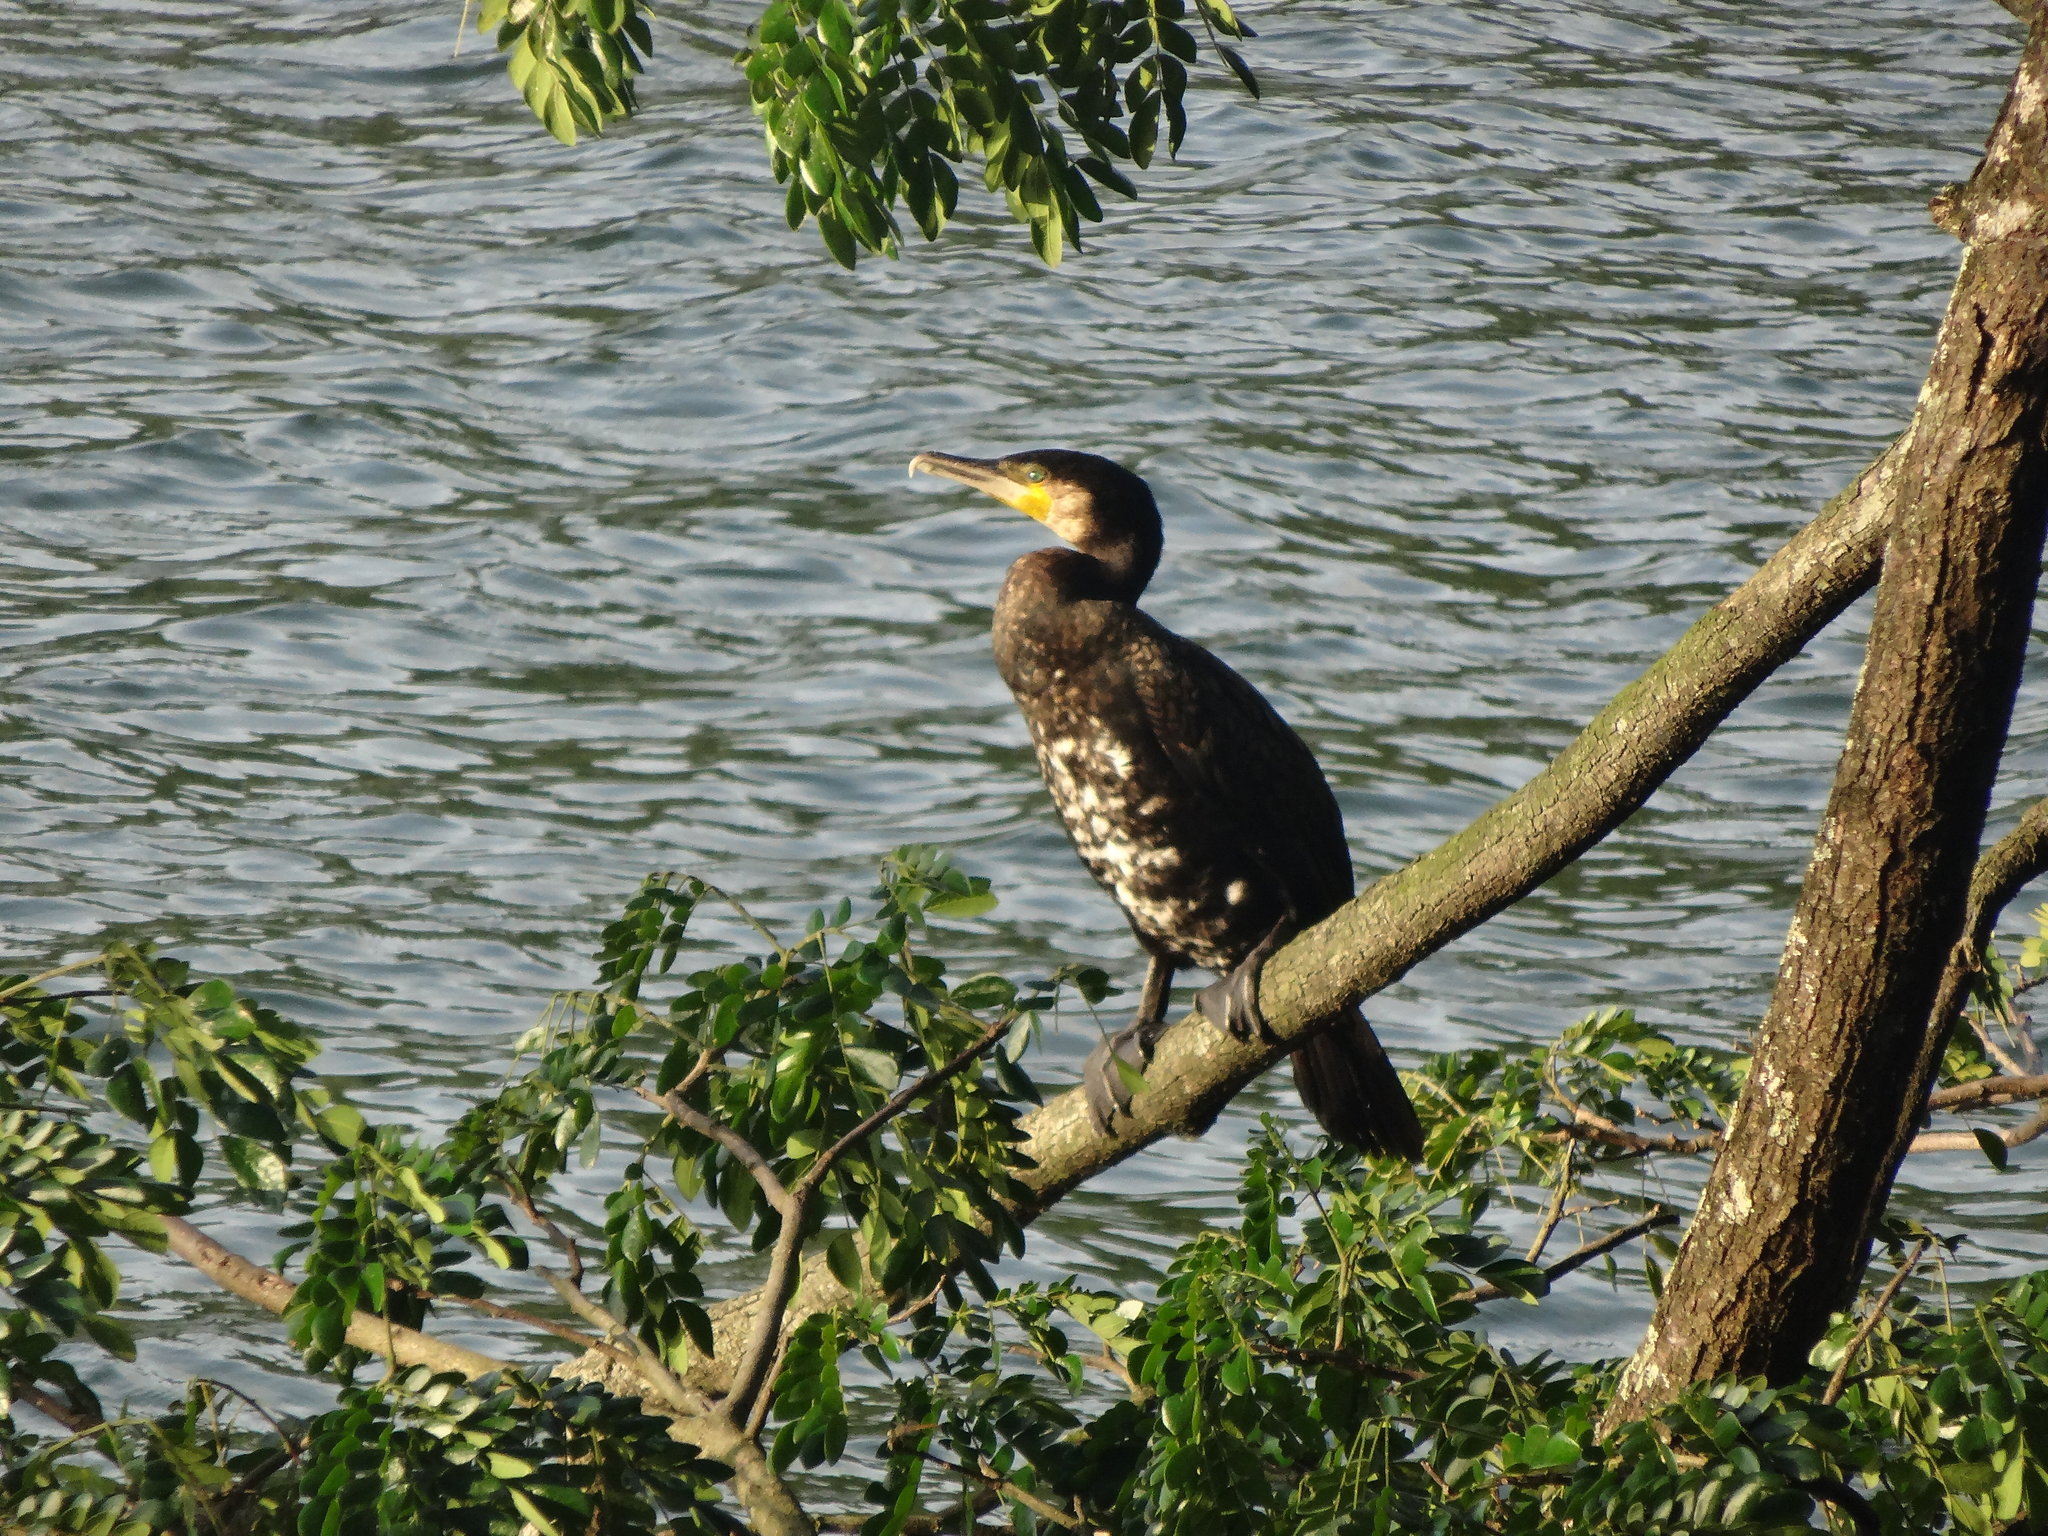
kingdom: Animalia
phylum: Chordata
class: Aves
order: Suliformes
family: Phalacrocoracidae
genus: Phalacrocorax
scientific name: Phalacrocorax carbo
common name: Great cormorant
